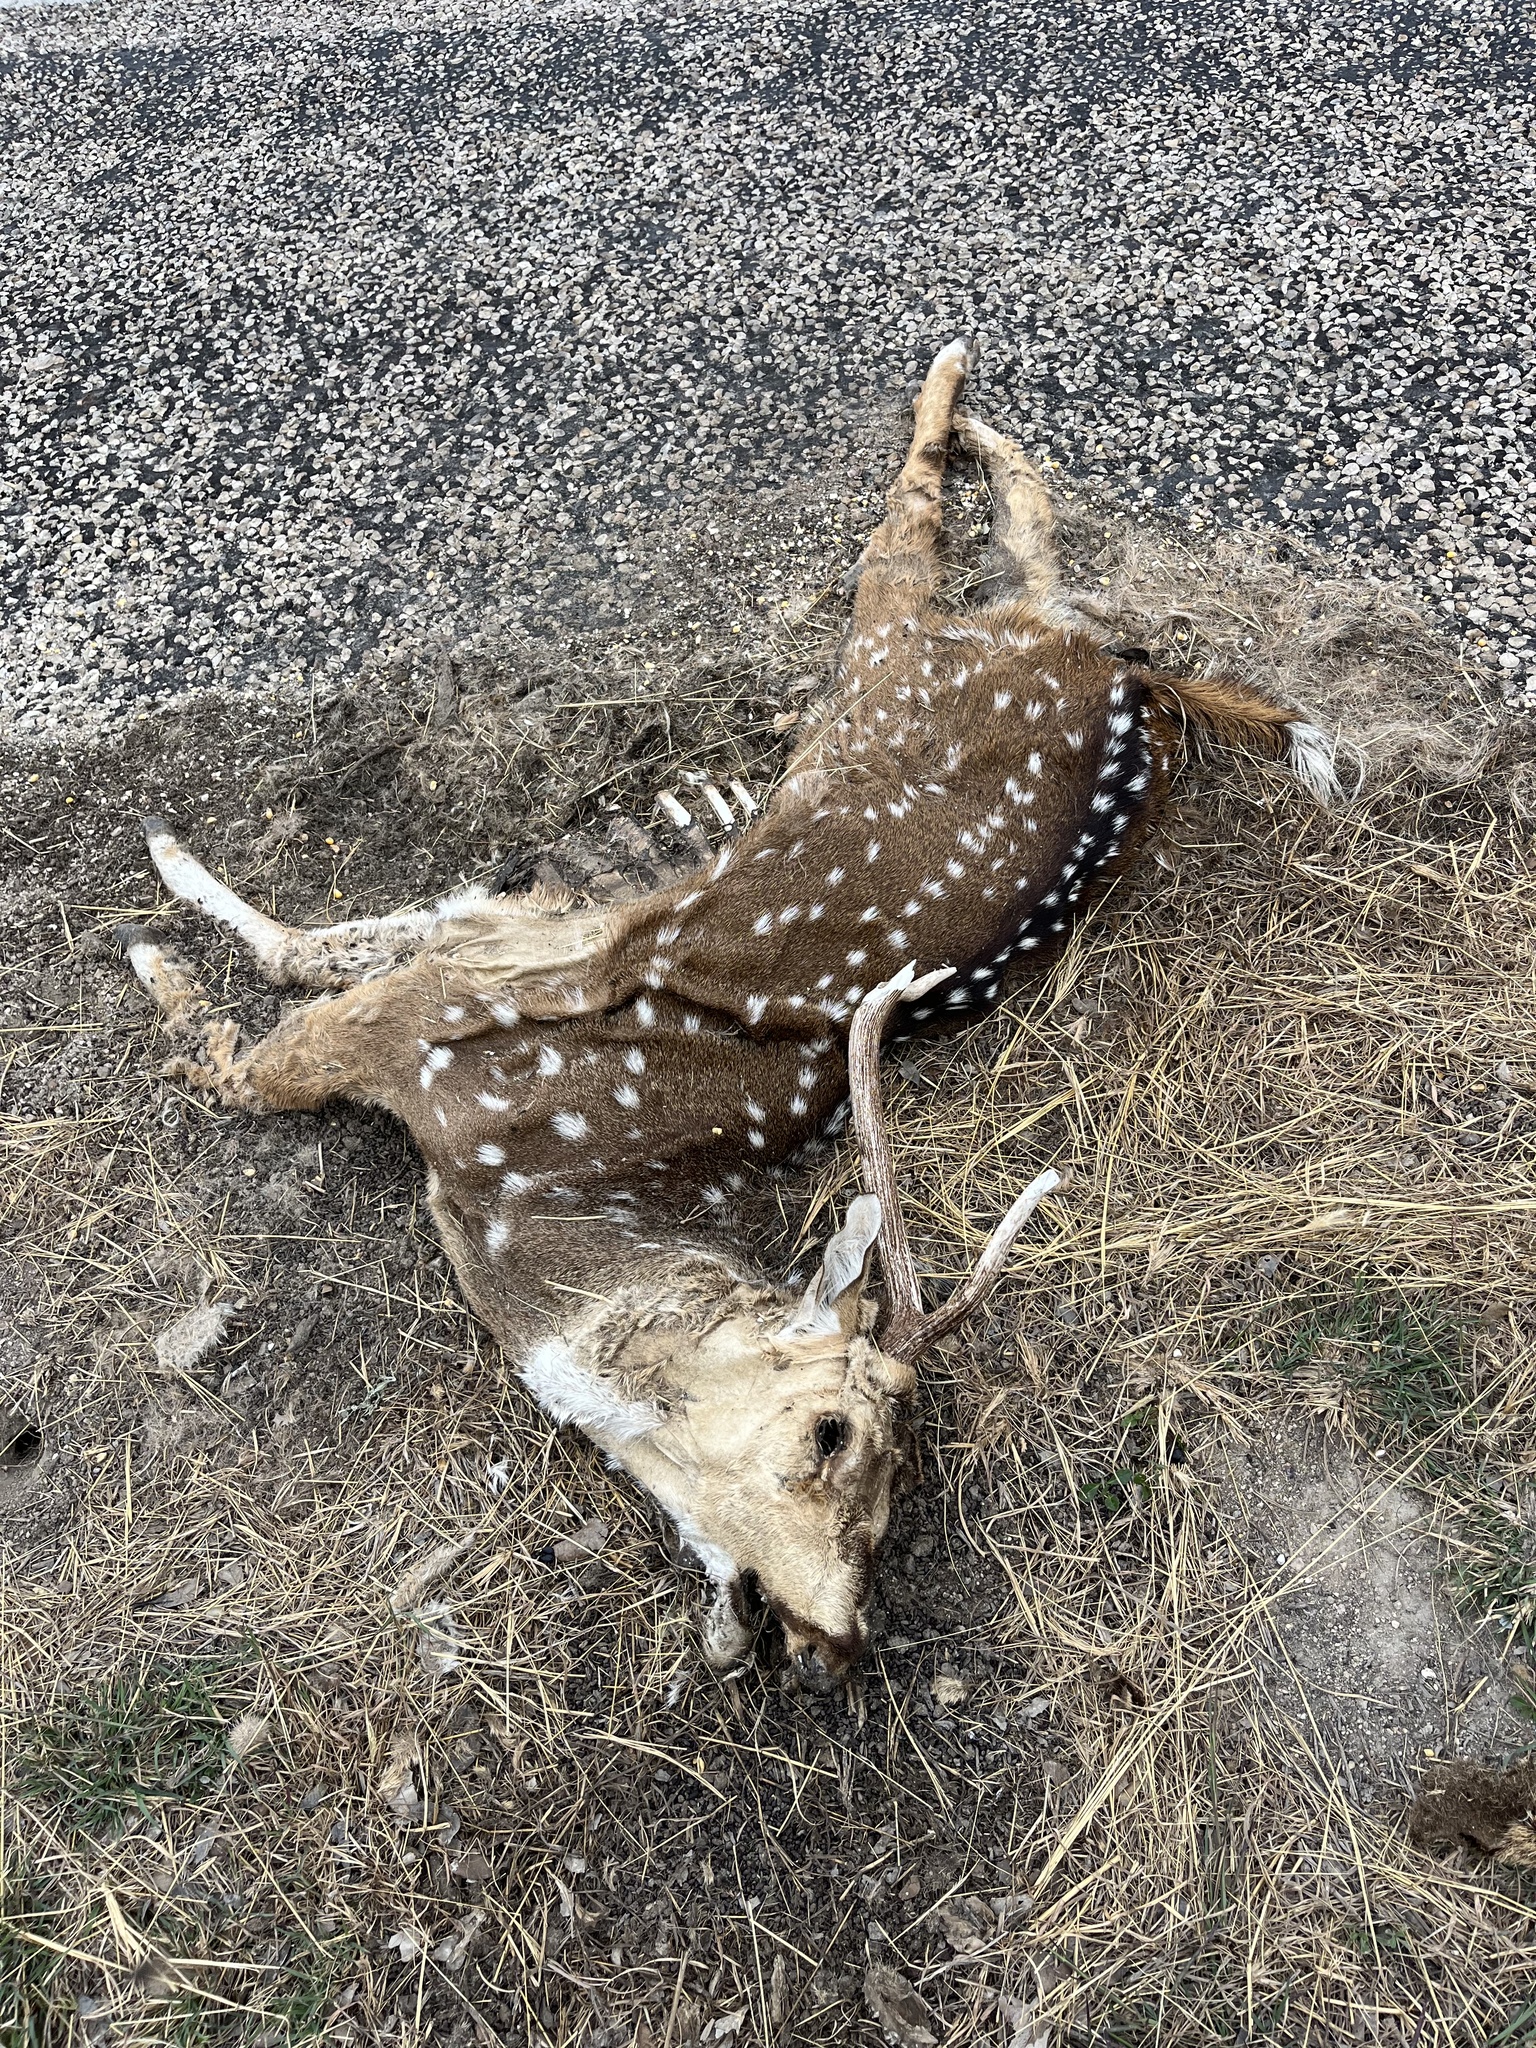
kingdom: Animalia
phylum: Chordata
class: Mammalia
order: Artiodactyla
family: Cervidae
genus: Axis
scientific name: Axis axis
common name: Chital
